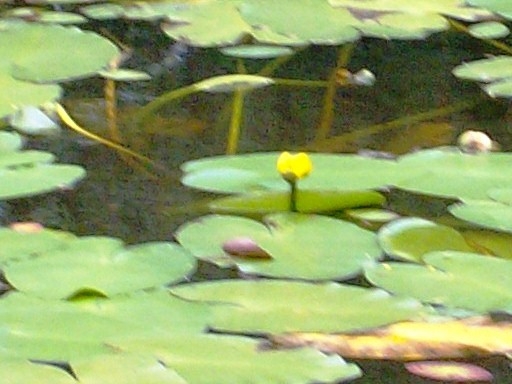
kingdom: Plantae
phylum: Tracheophyta
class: Magnoliopsida
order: Nymphaeales
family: Nymphaeaceae
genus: Nuphar
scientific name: Nuphar variegata
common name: Beaver-root
